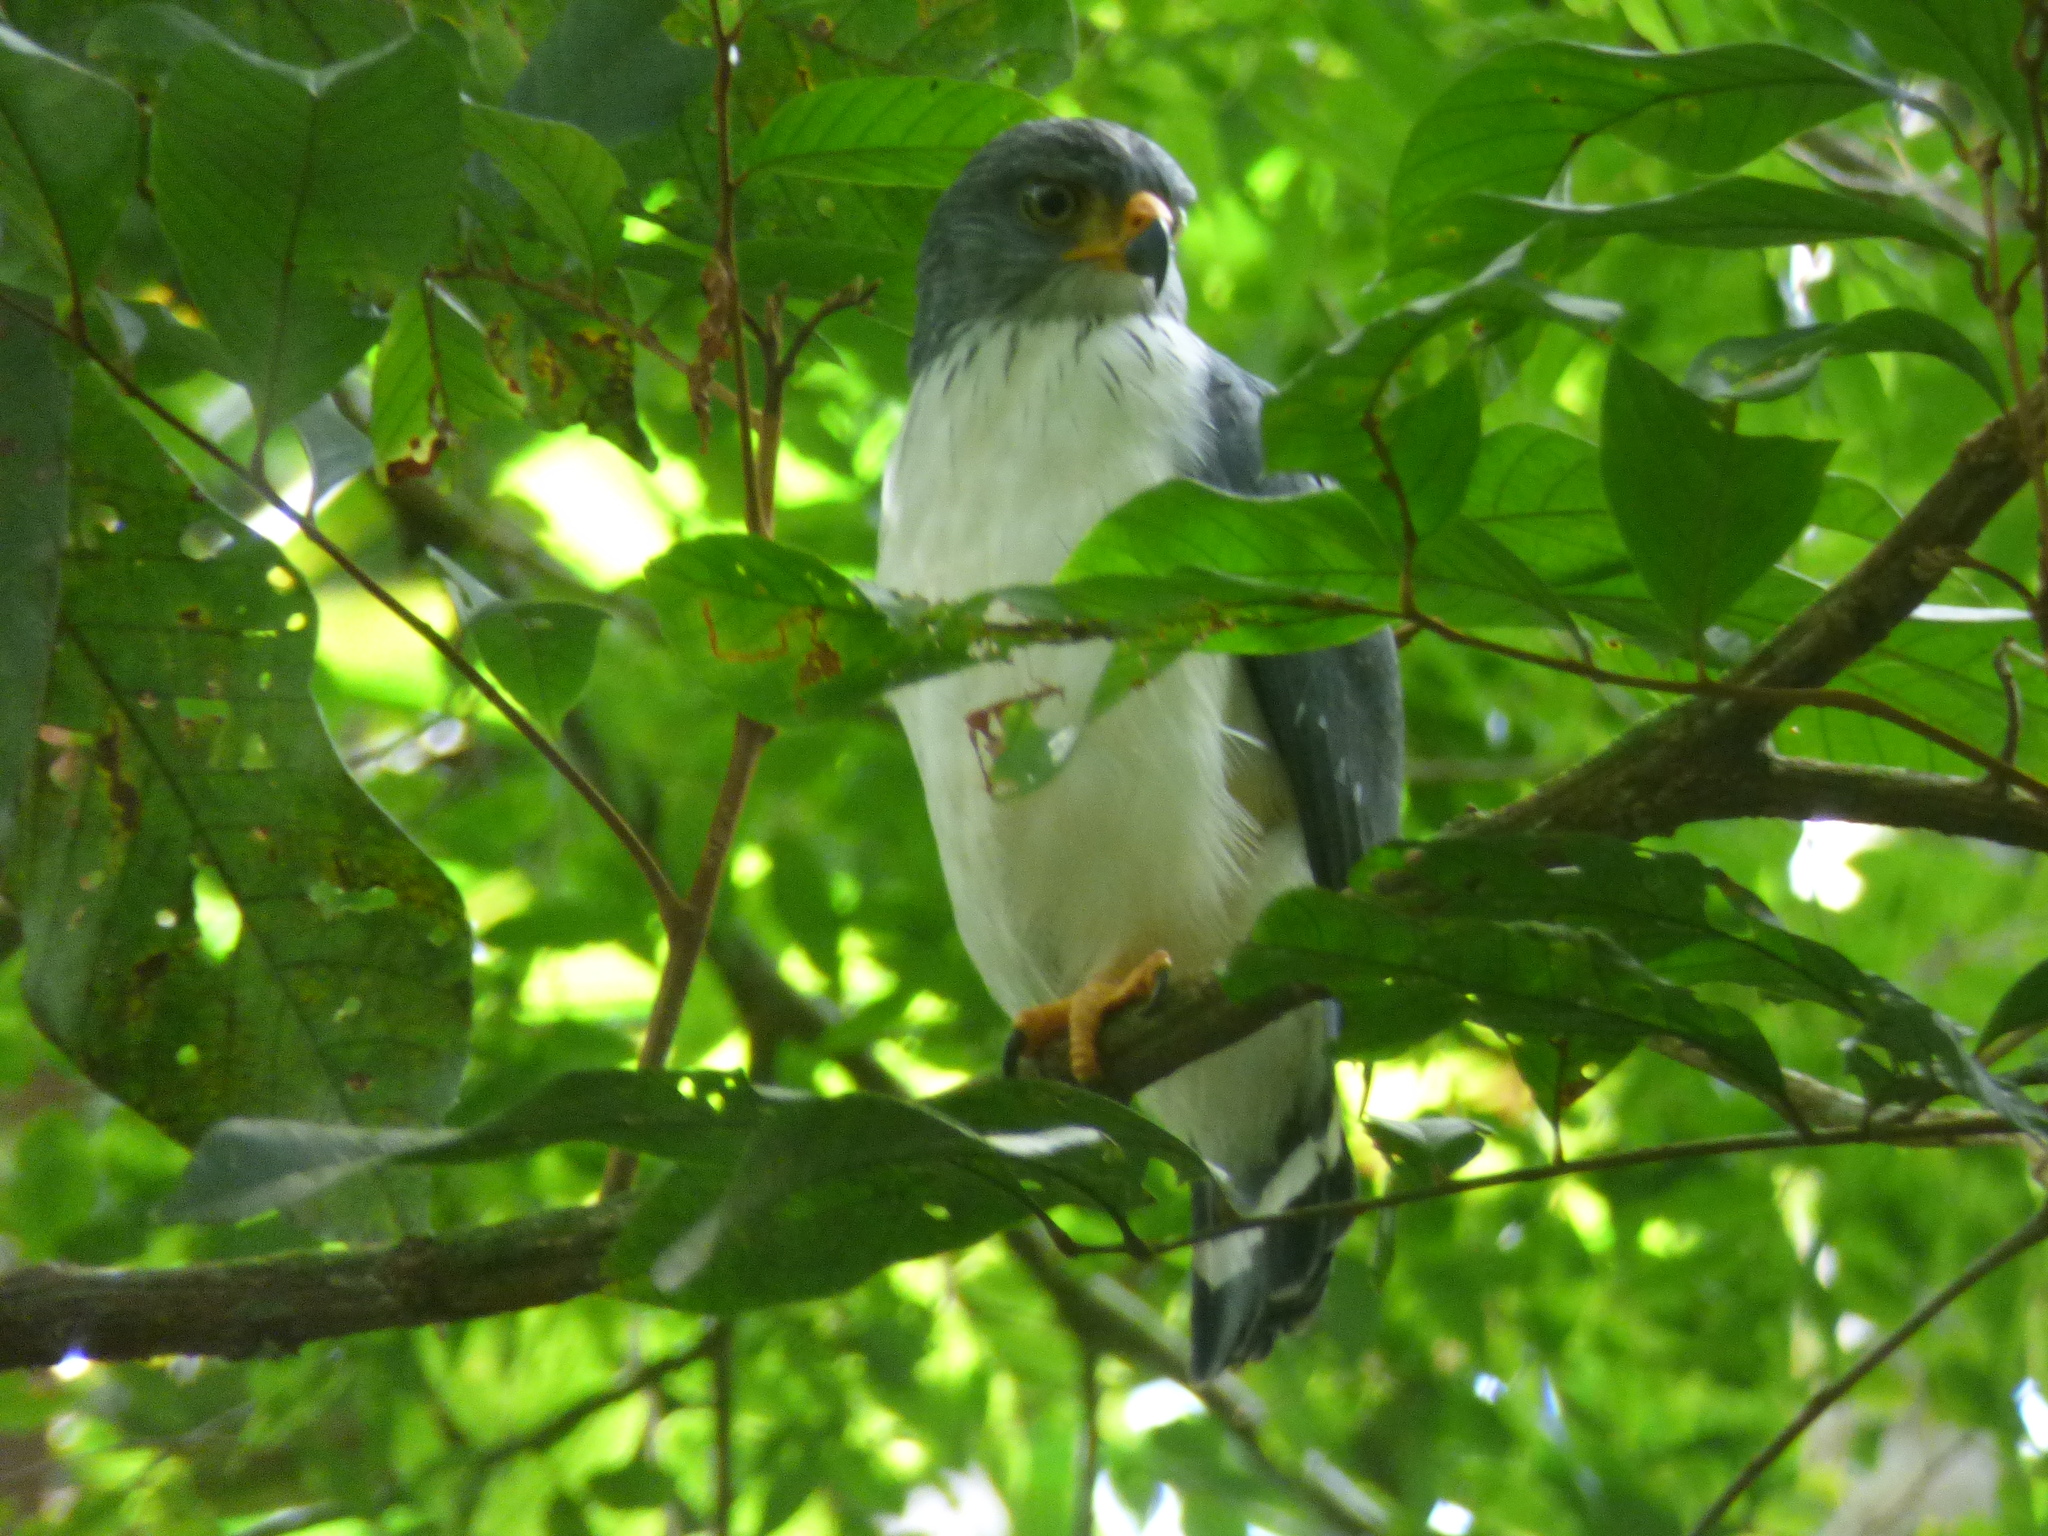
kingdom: Animalia
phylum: Chordata
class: Aves
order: Accipitriformes
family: Accipitridae
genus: Leucopternis
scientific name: Leucopternis semiplumbeus
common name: Semiplumbeous hawk
